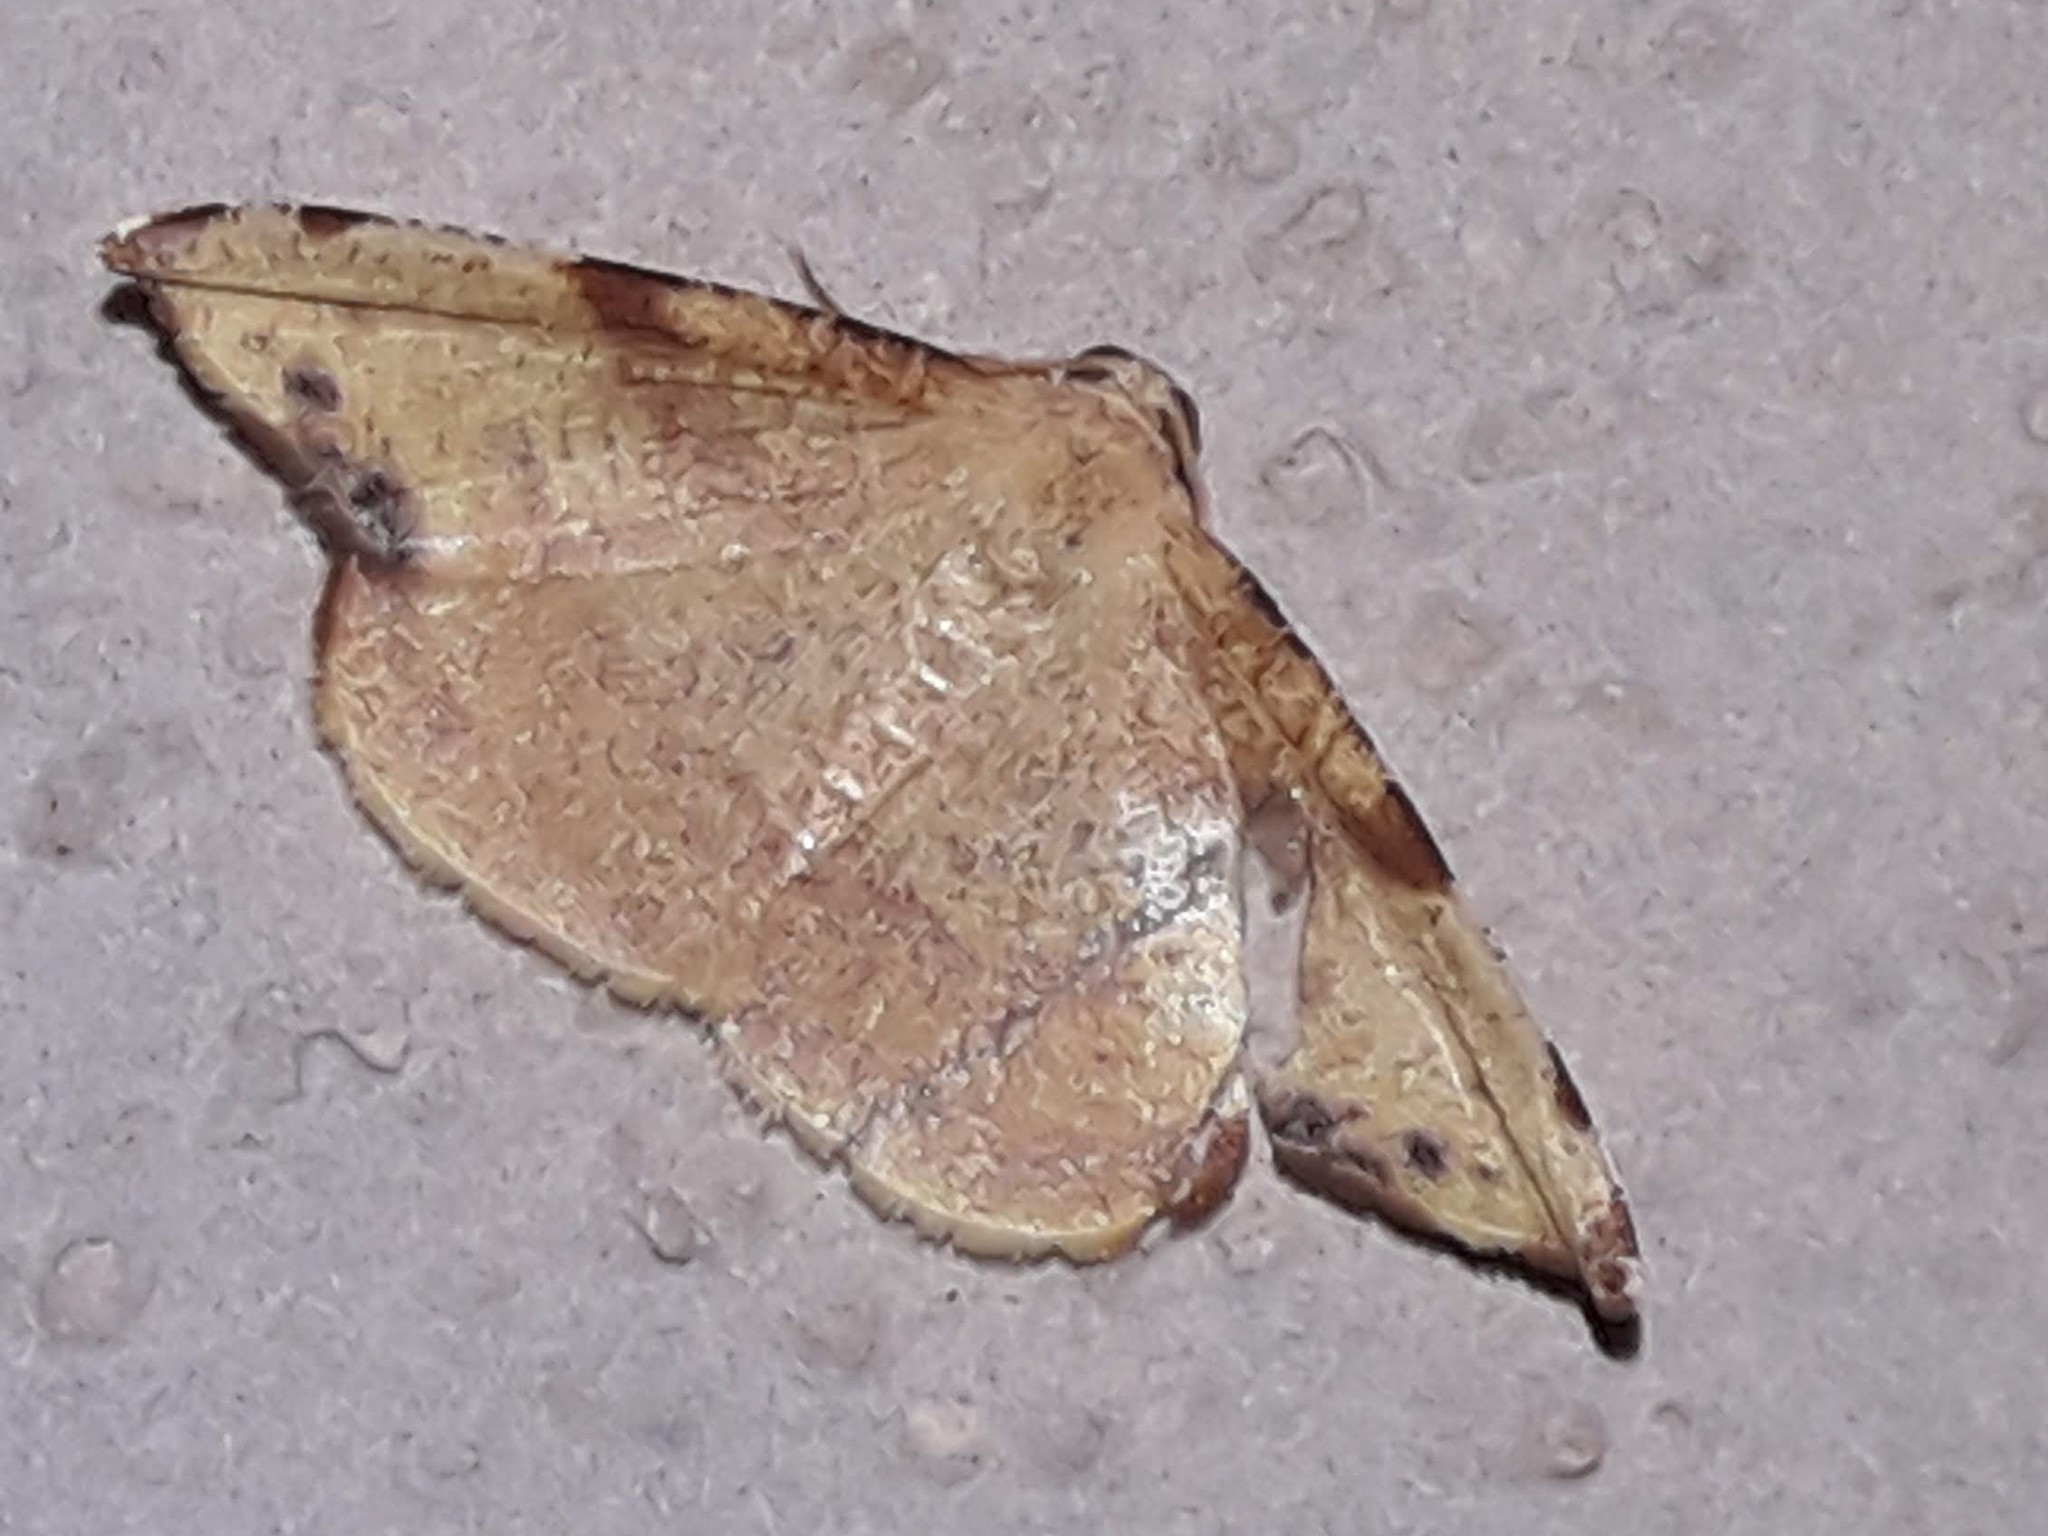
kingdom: Animalia
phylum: Arthropoda
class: Insecta
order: Lepidoptera
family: Geometridae
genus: Pyrinia
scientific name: Pyrinia selecta
